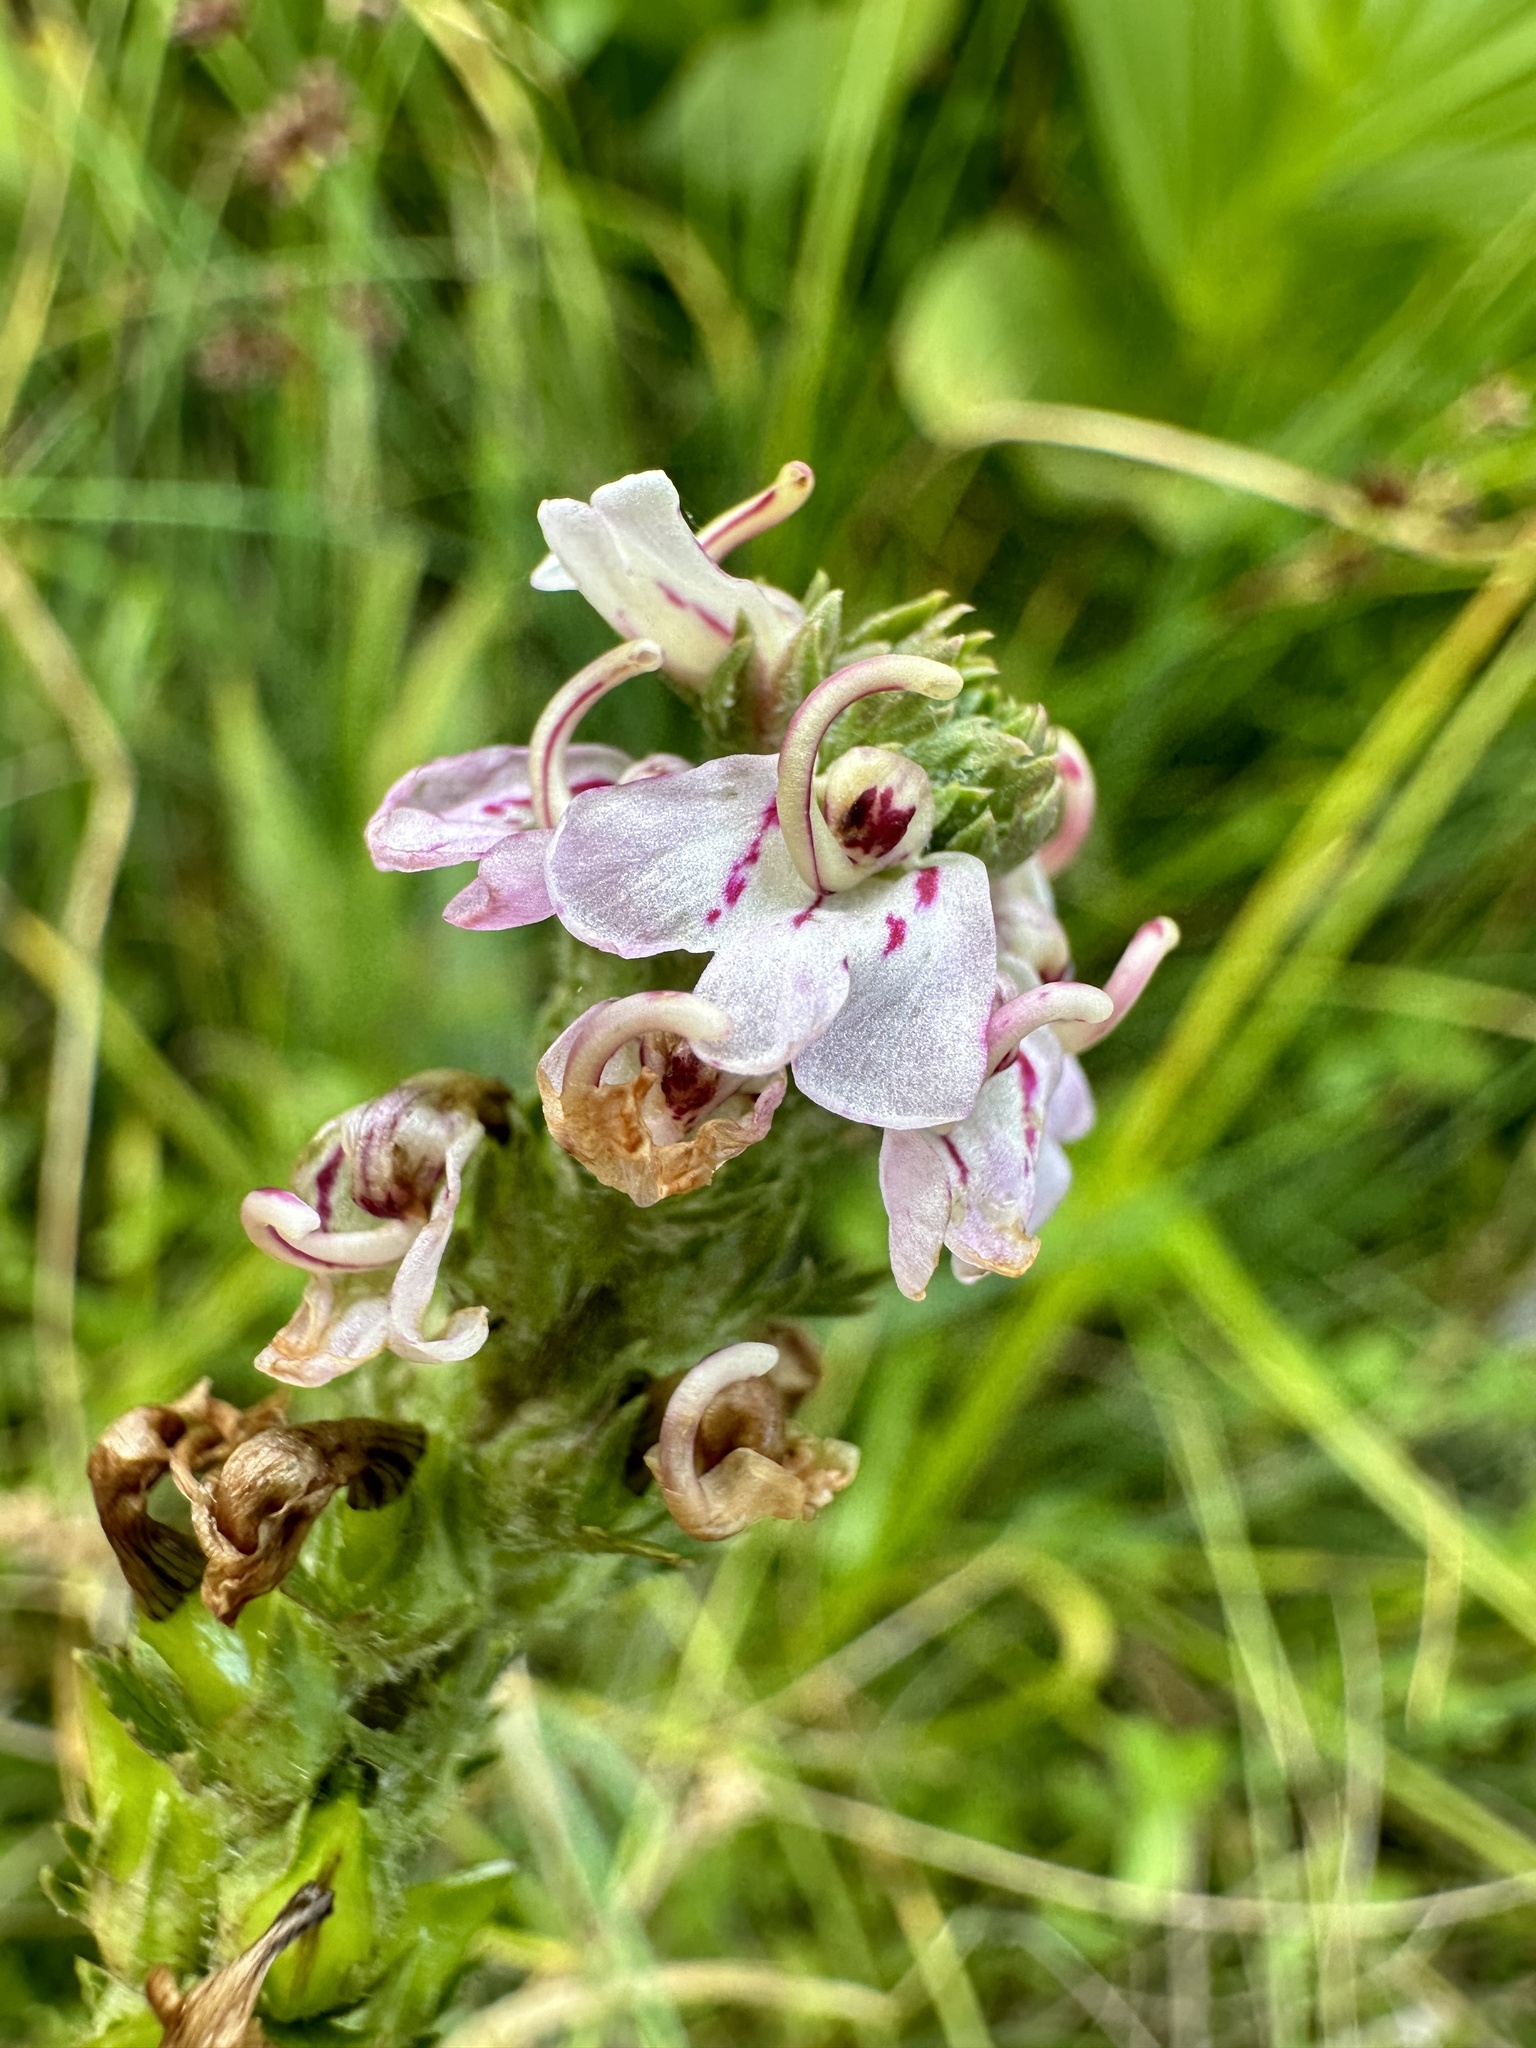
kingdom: Plantae
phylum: Tracheophyta
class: Magnoliopsida
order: Lamiales
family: Orobanchaceae
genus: Pedicularis
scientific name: Pedicularis attollens
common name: Slender pedicularis
